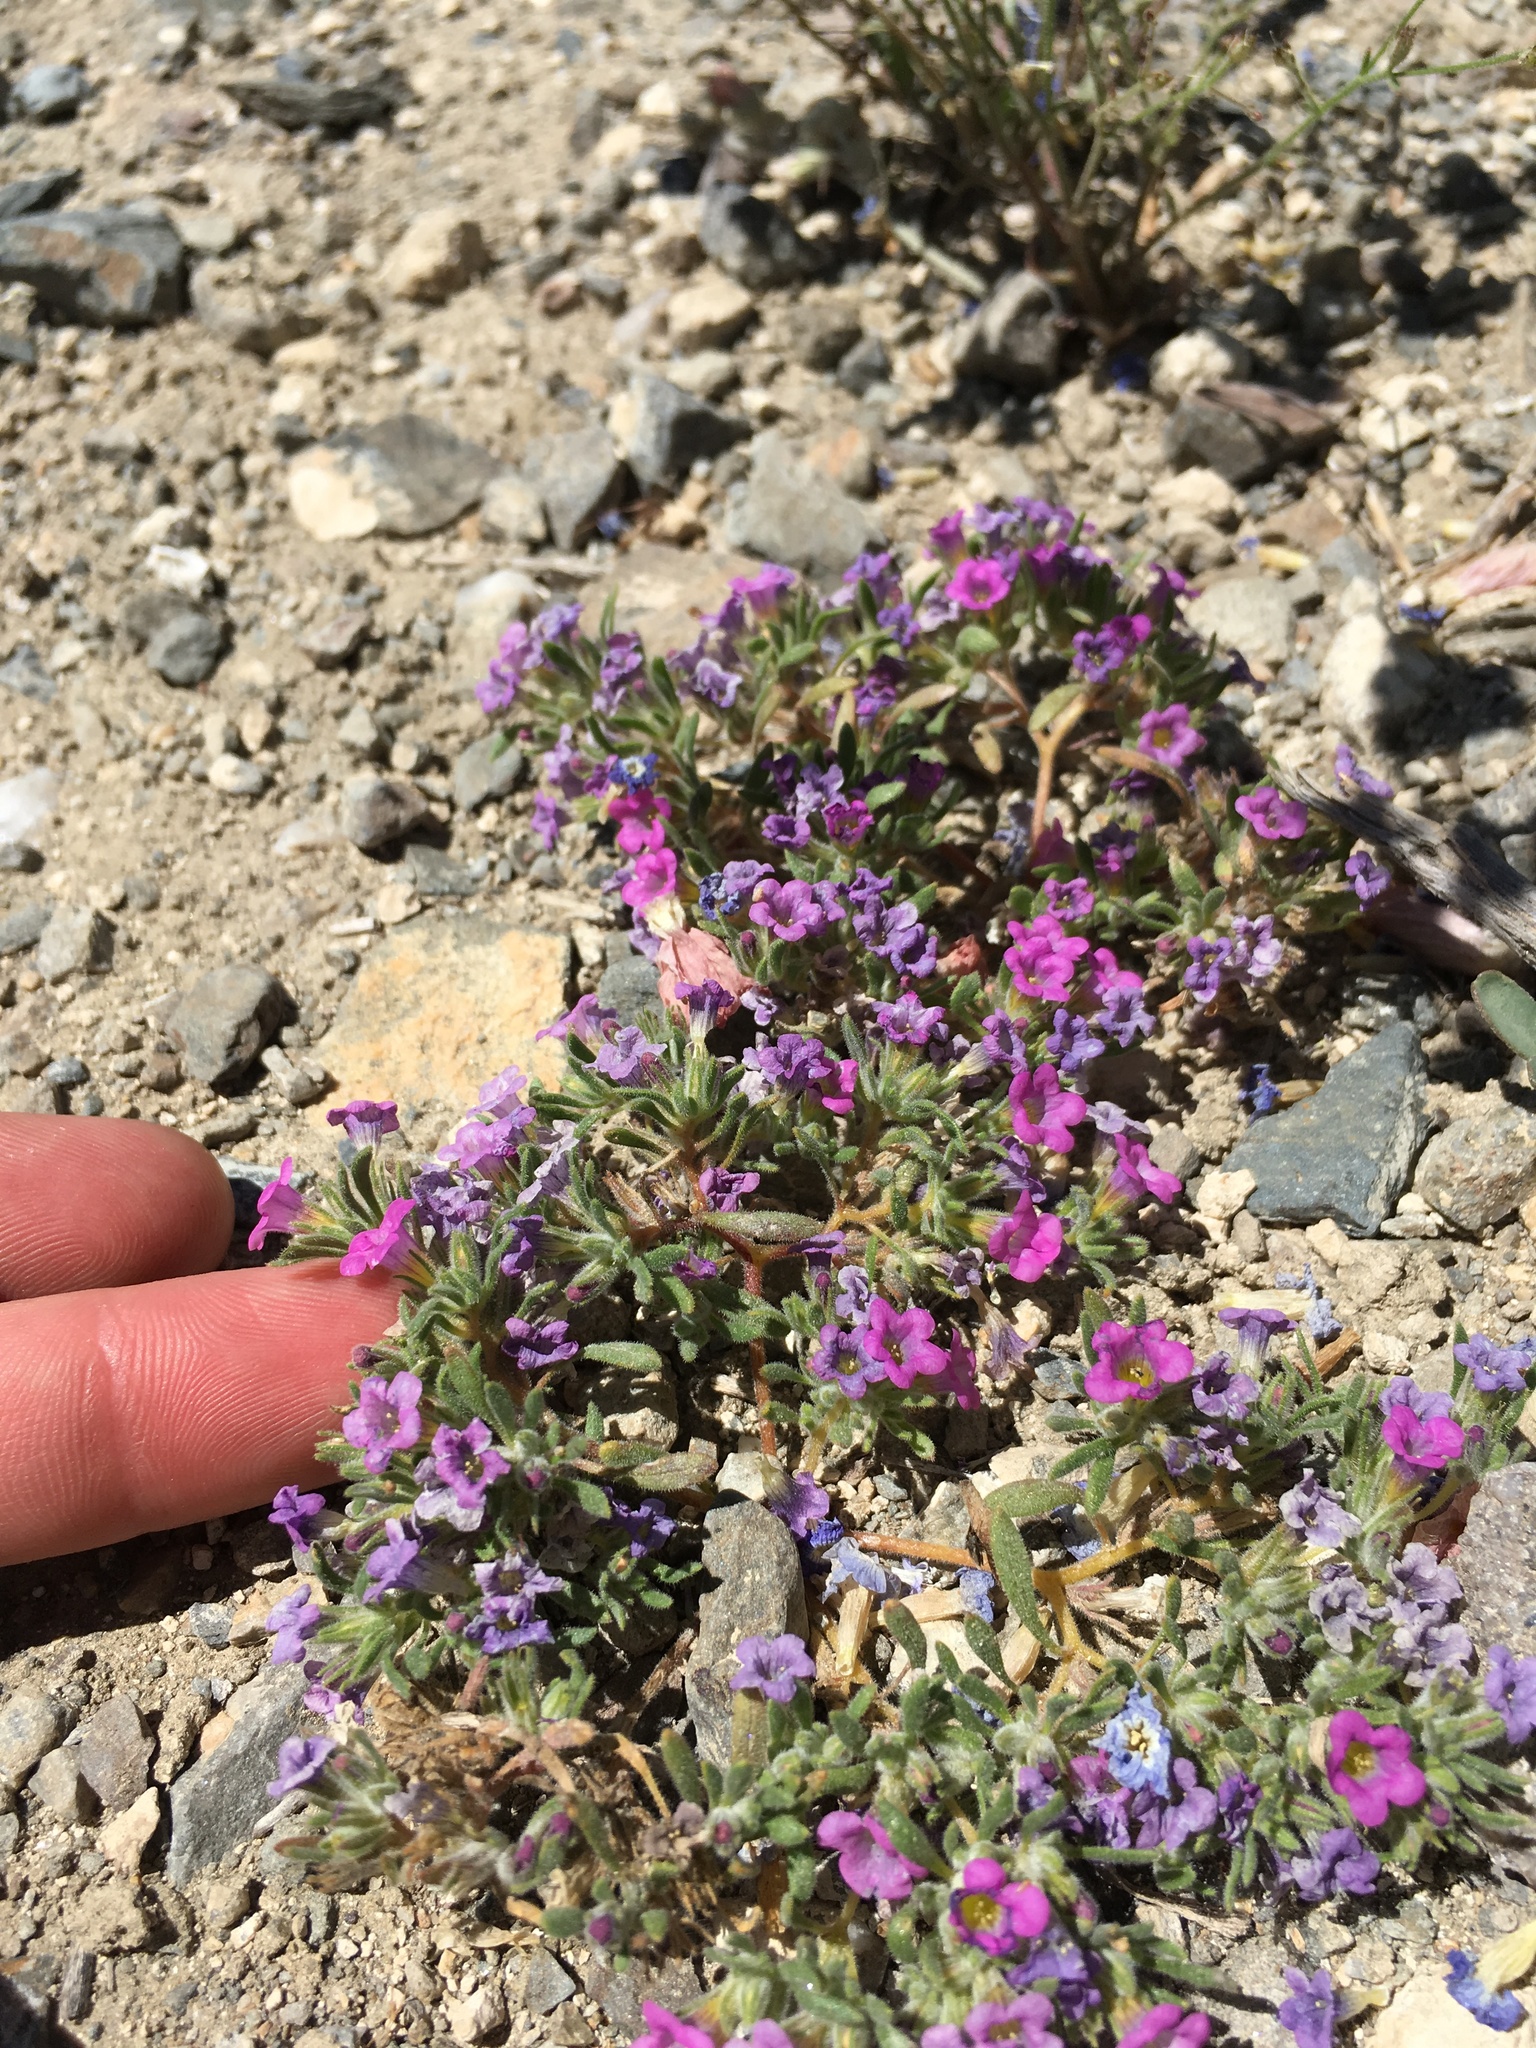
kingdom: Plantae
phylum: Tracheophyta
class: Magnoliopsida
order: Boraginales
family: Namaceae
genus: Nama
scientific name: Nama demissa
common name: Leafy nama
